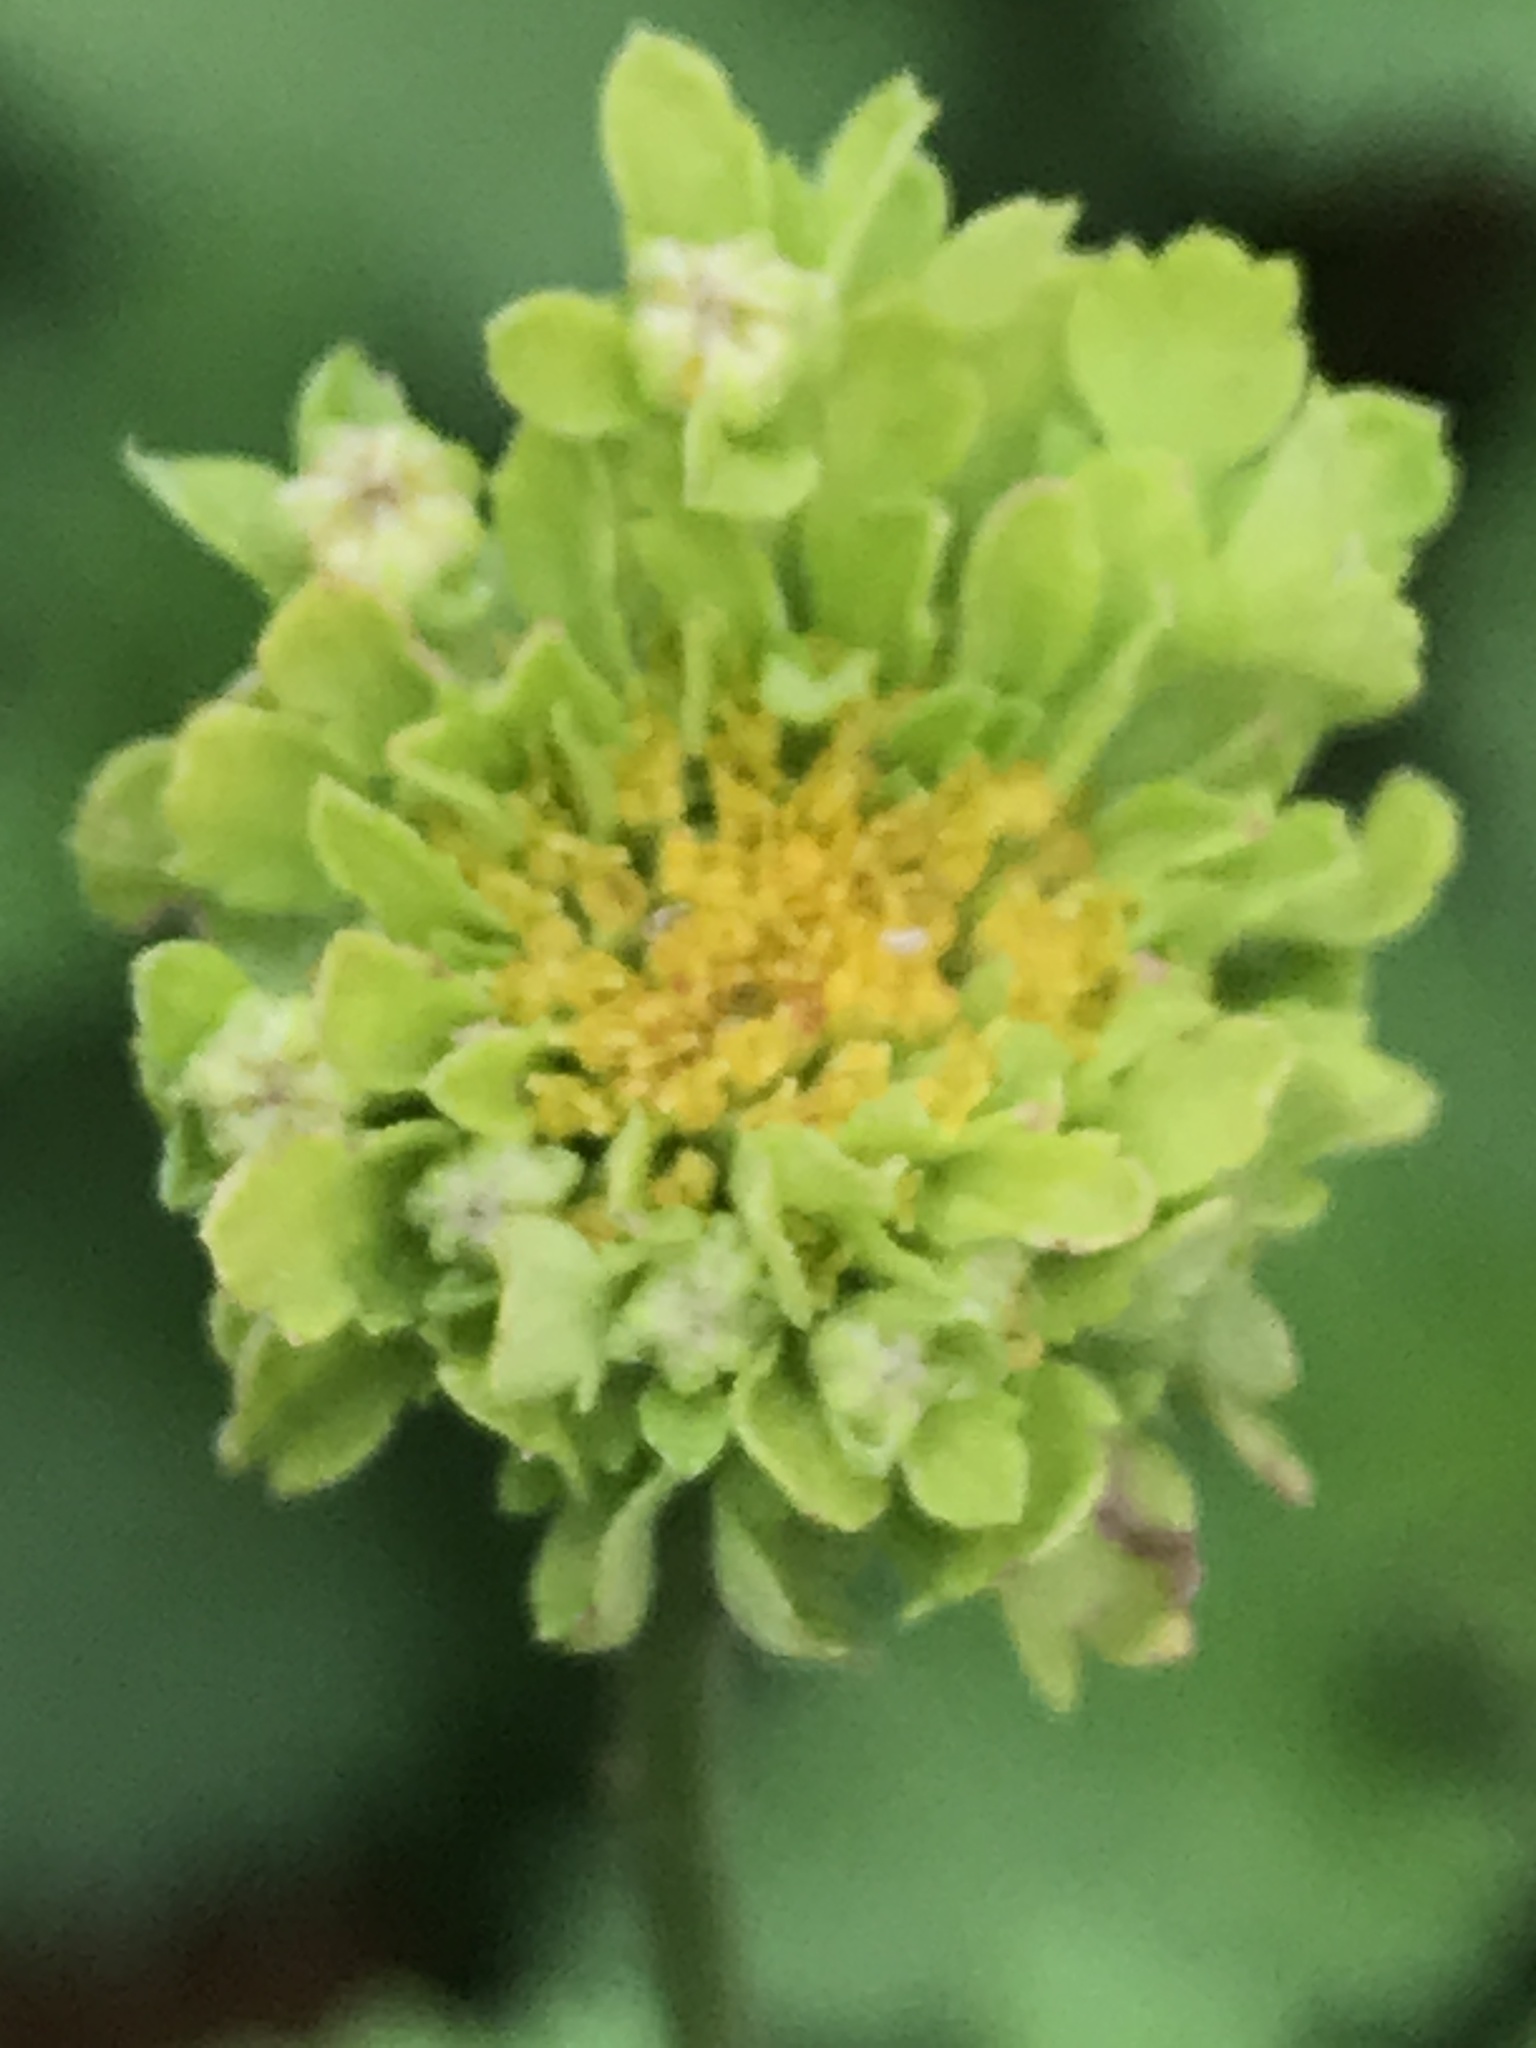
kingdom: Plantae
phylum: Tracheophyta
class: Magnoliopsida
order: Asterales
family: Asteraceae
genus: Tanacetum
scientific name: Tanacetum parthenium
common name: Feverfew
